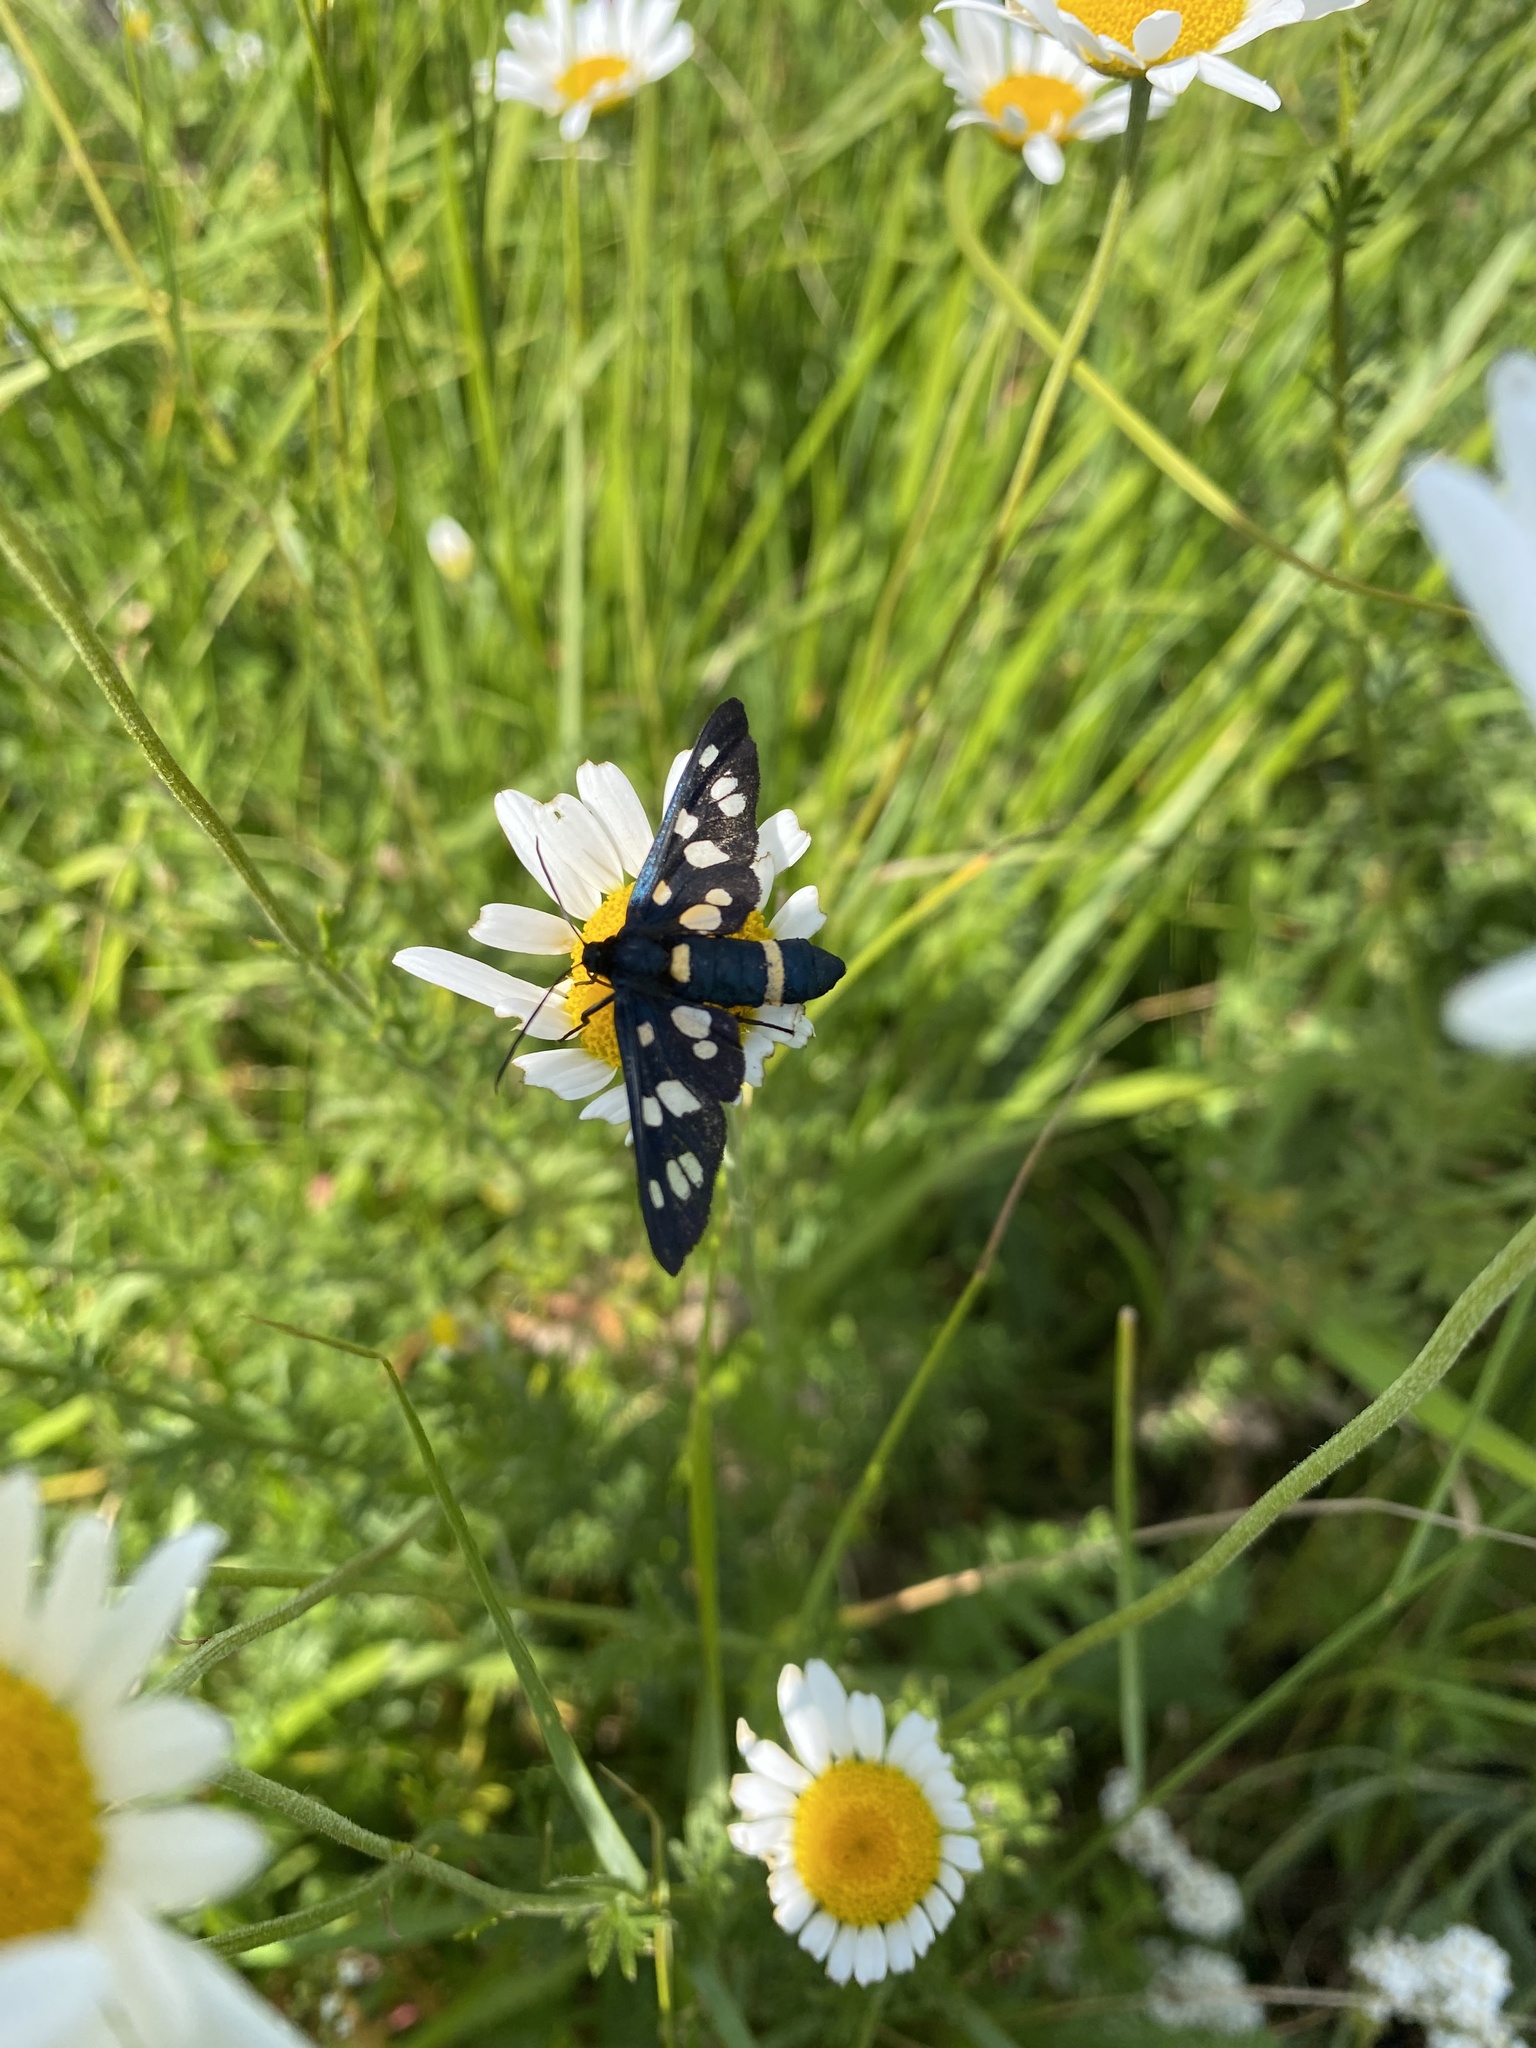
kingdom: Animalia
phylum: Arthropoda
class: Insecta
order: Lepidoptera
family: Erebidae
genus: Amata
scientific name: Amata nigricornis
